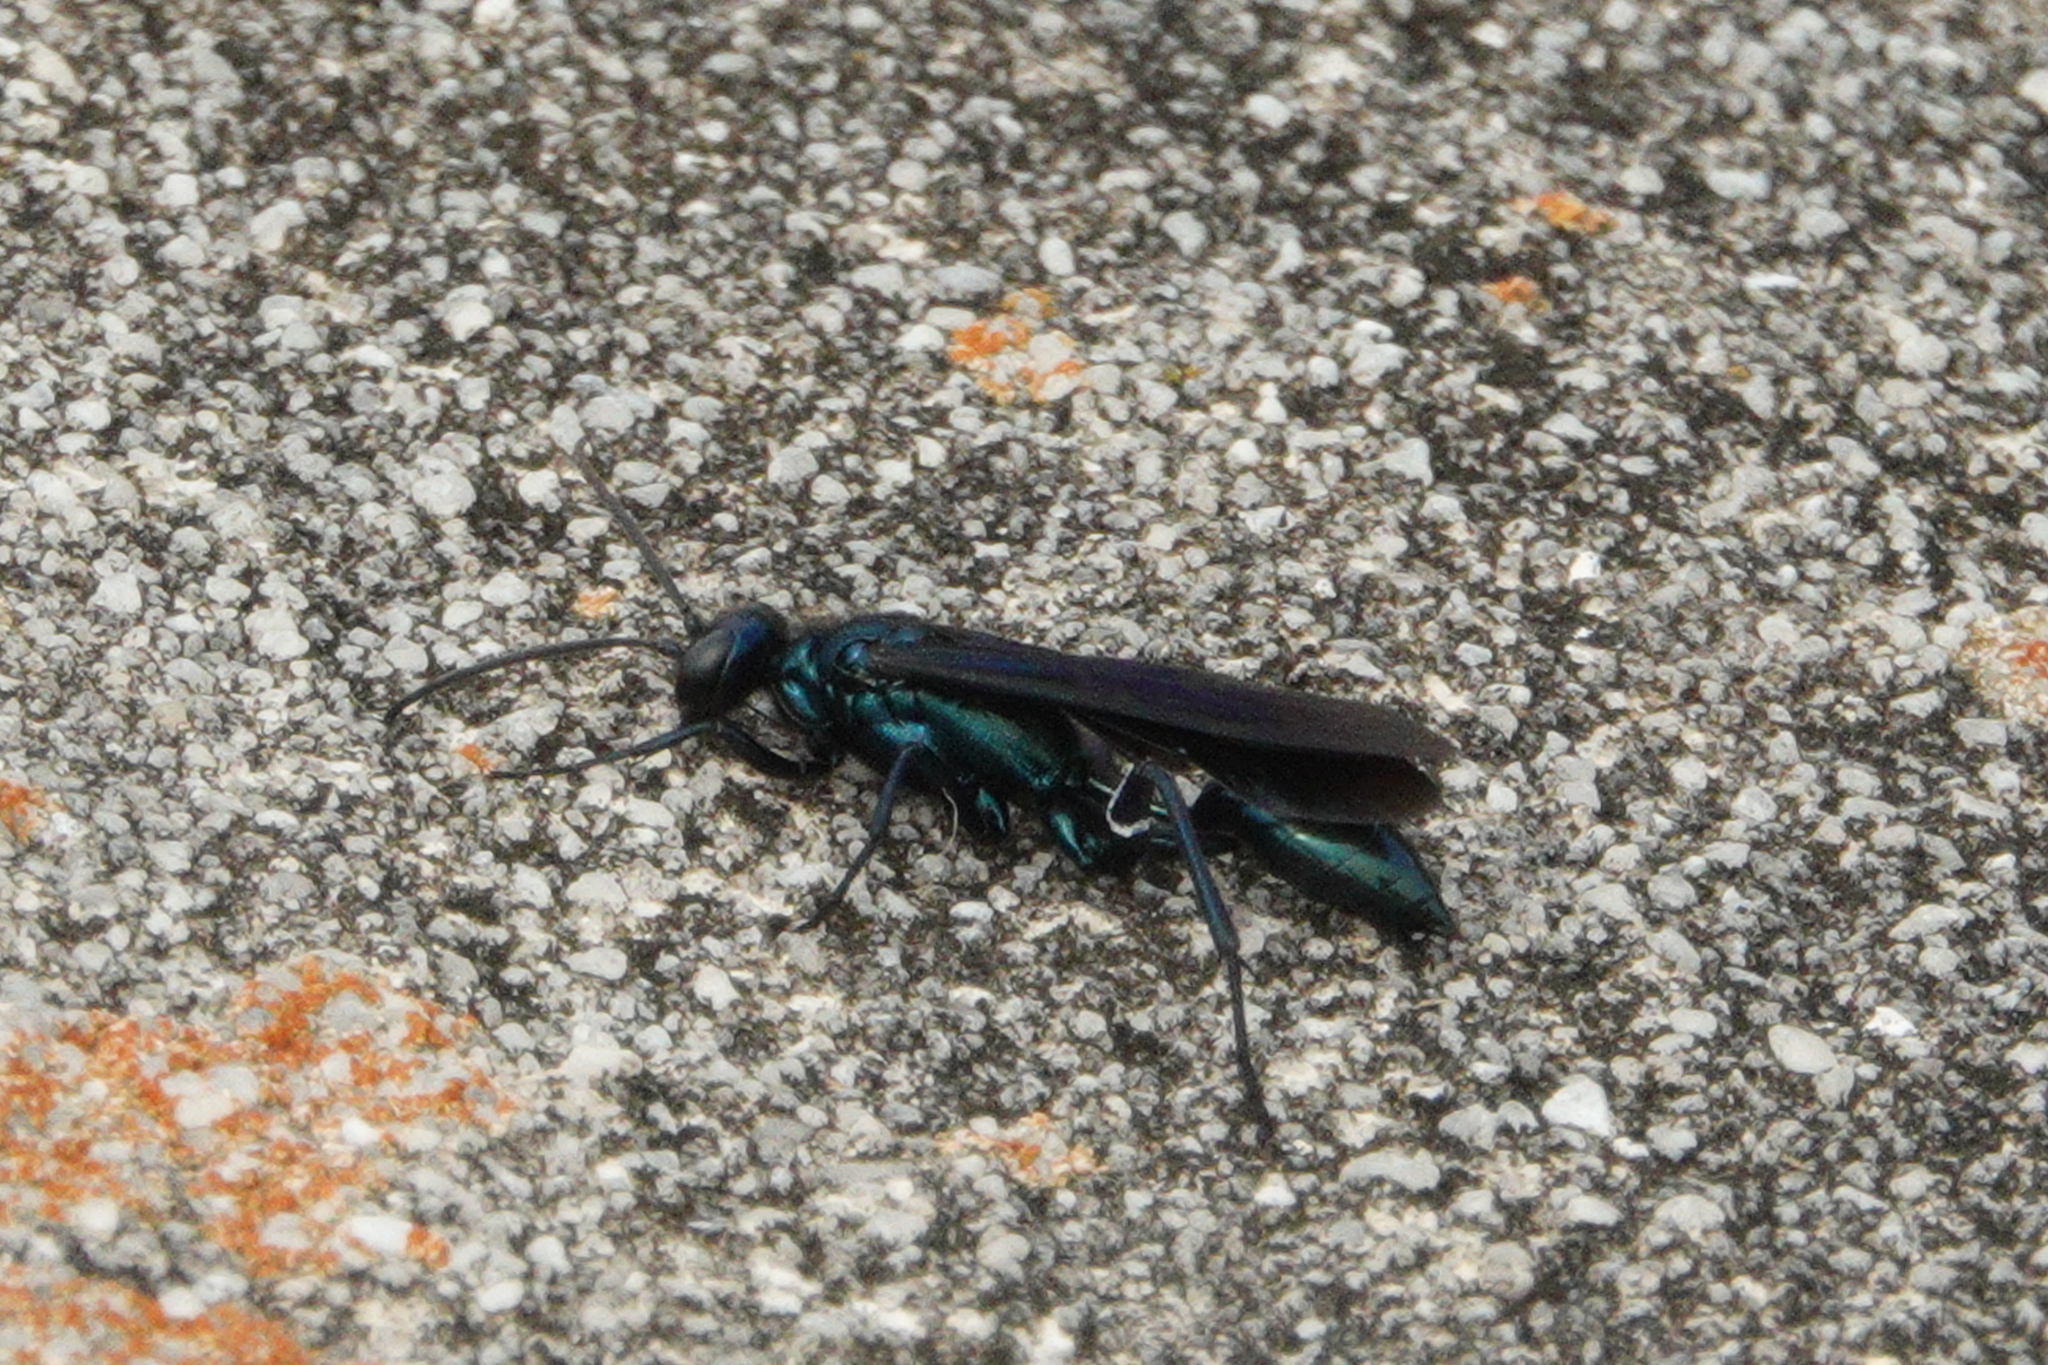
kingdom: Animalia
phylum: Arthropoda
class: Insecta
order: Hymenoptera
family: Sphecidae
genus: Chalybion
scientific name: Chalybion californicum
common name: Mud dauber
